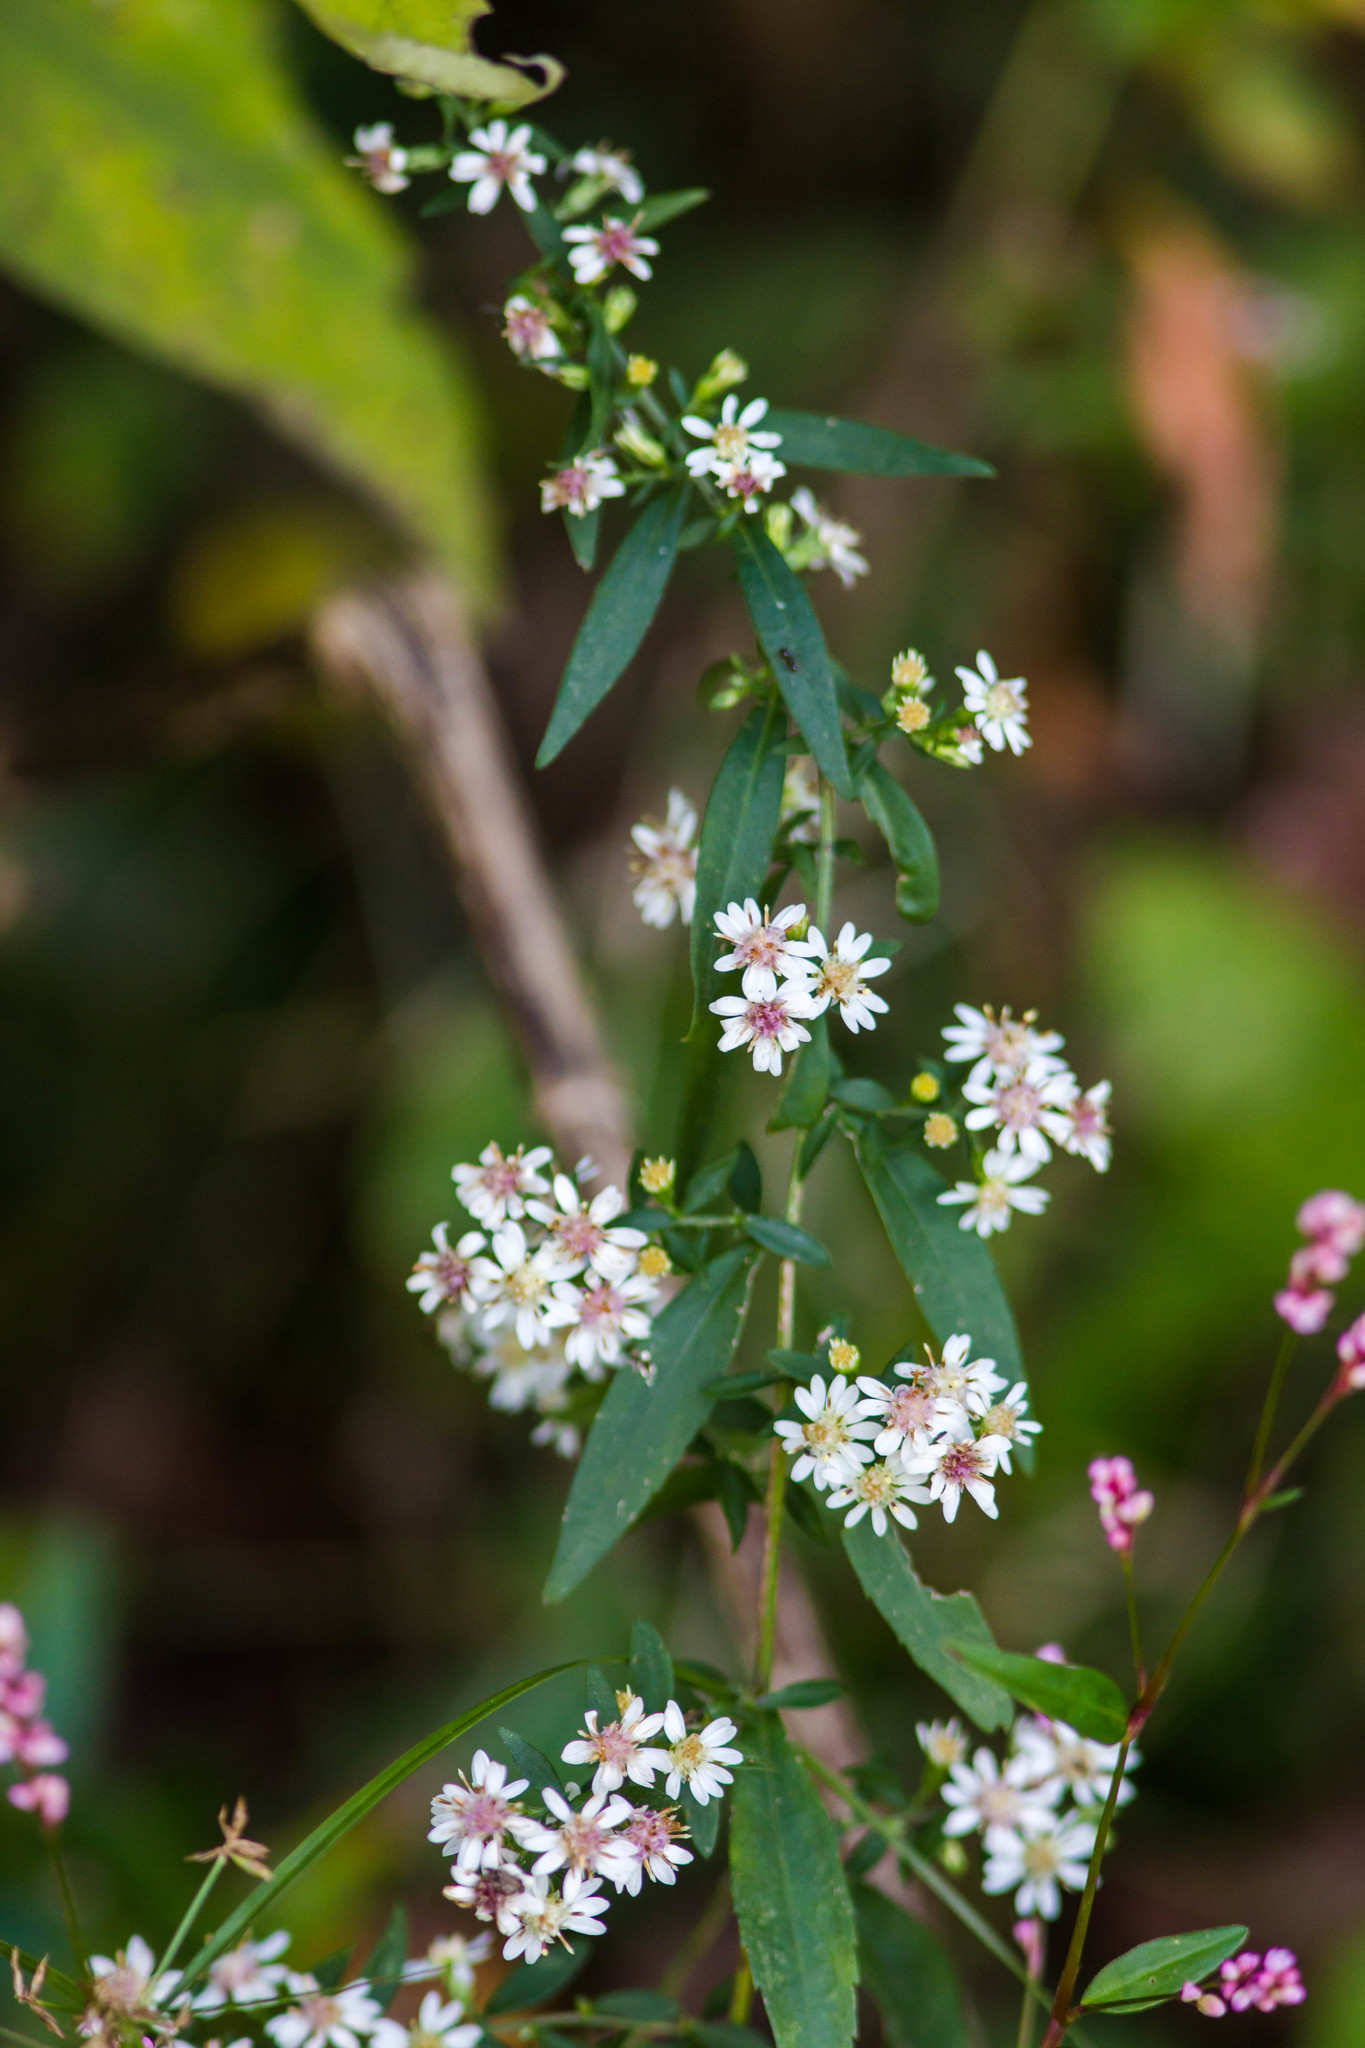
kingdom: Plantae
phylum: Tracheophyta
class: Magnoliopsida
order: Asterales
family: Asteraceae
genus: Symphyotrichum
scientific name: Symphyotrichum lateriflorum
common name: Calico aster
